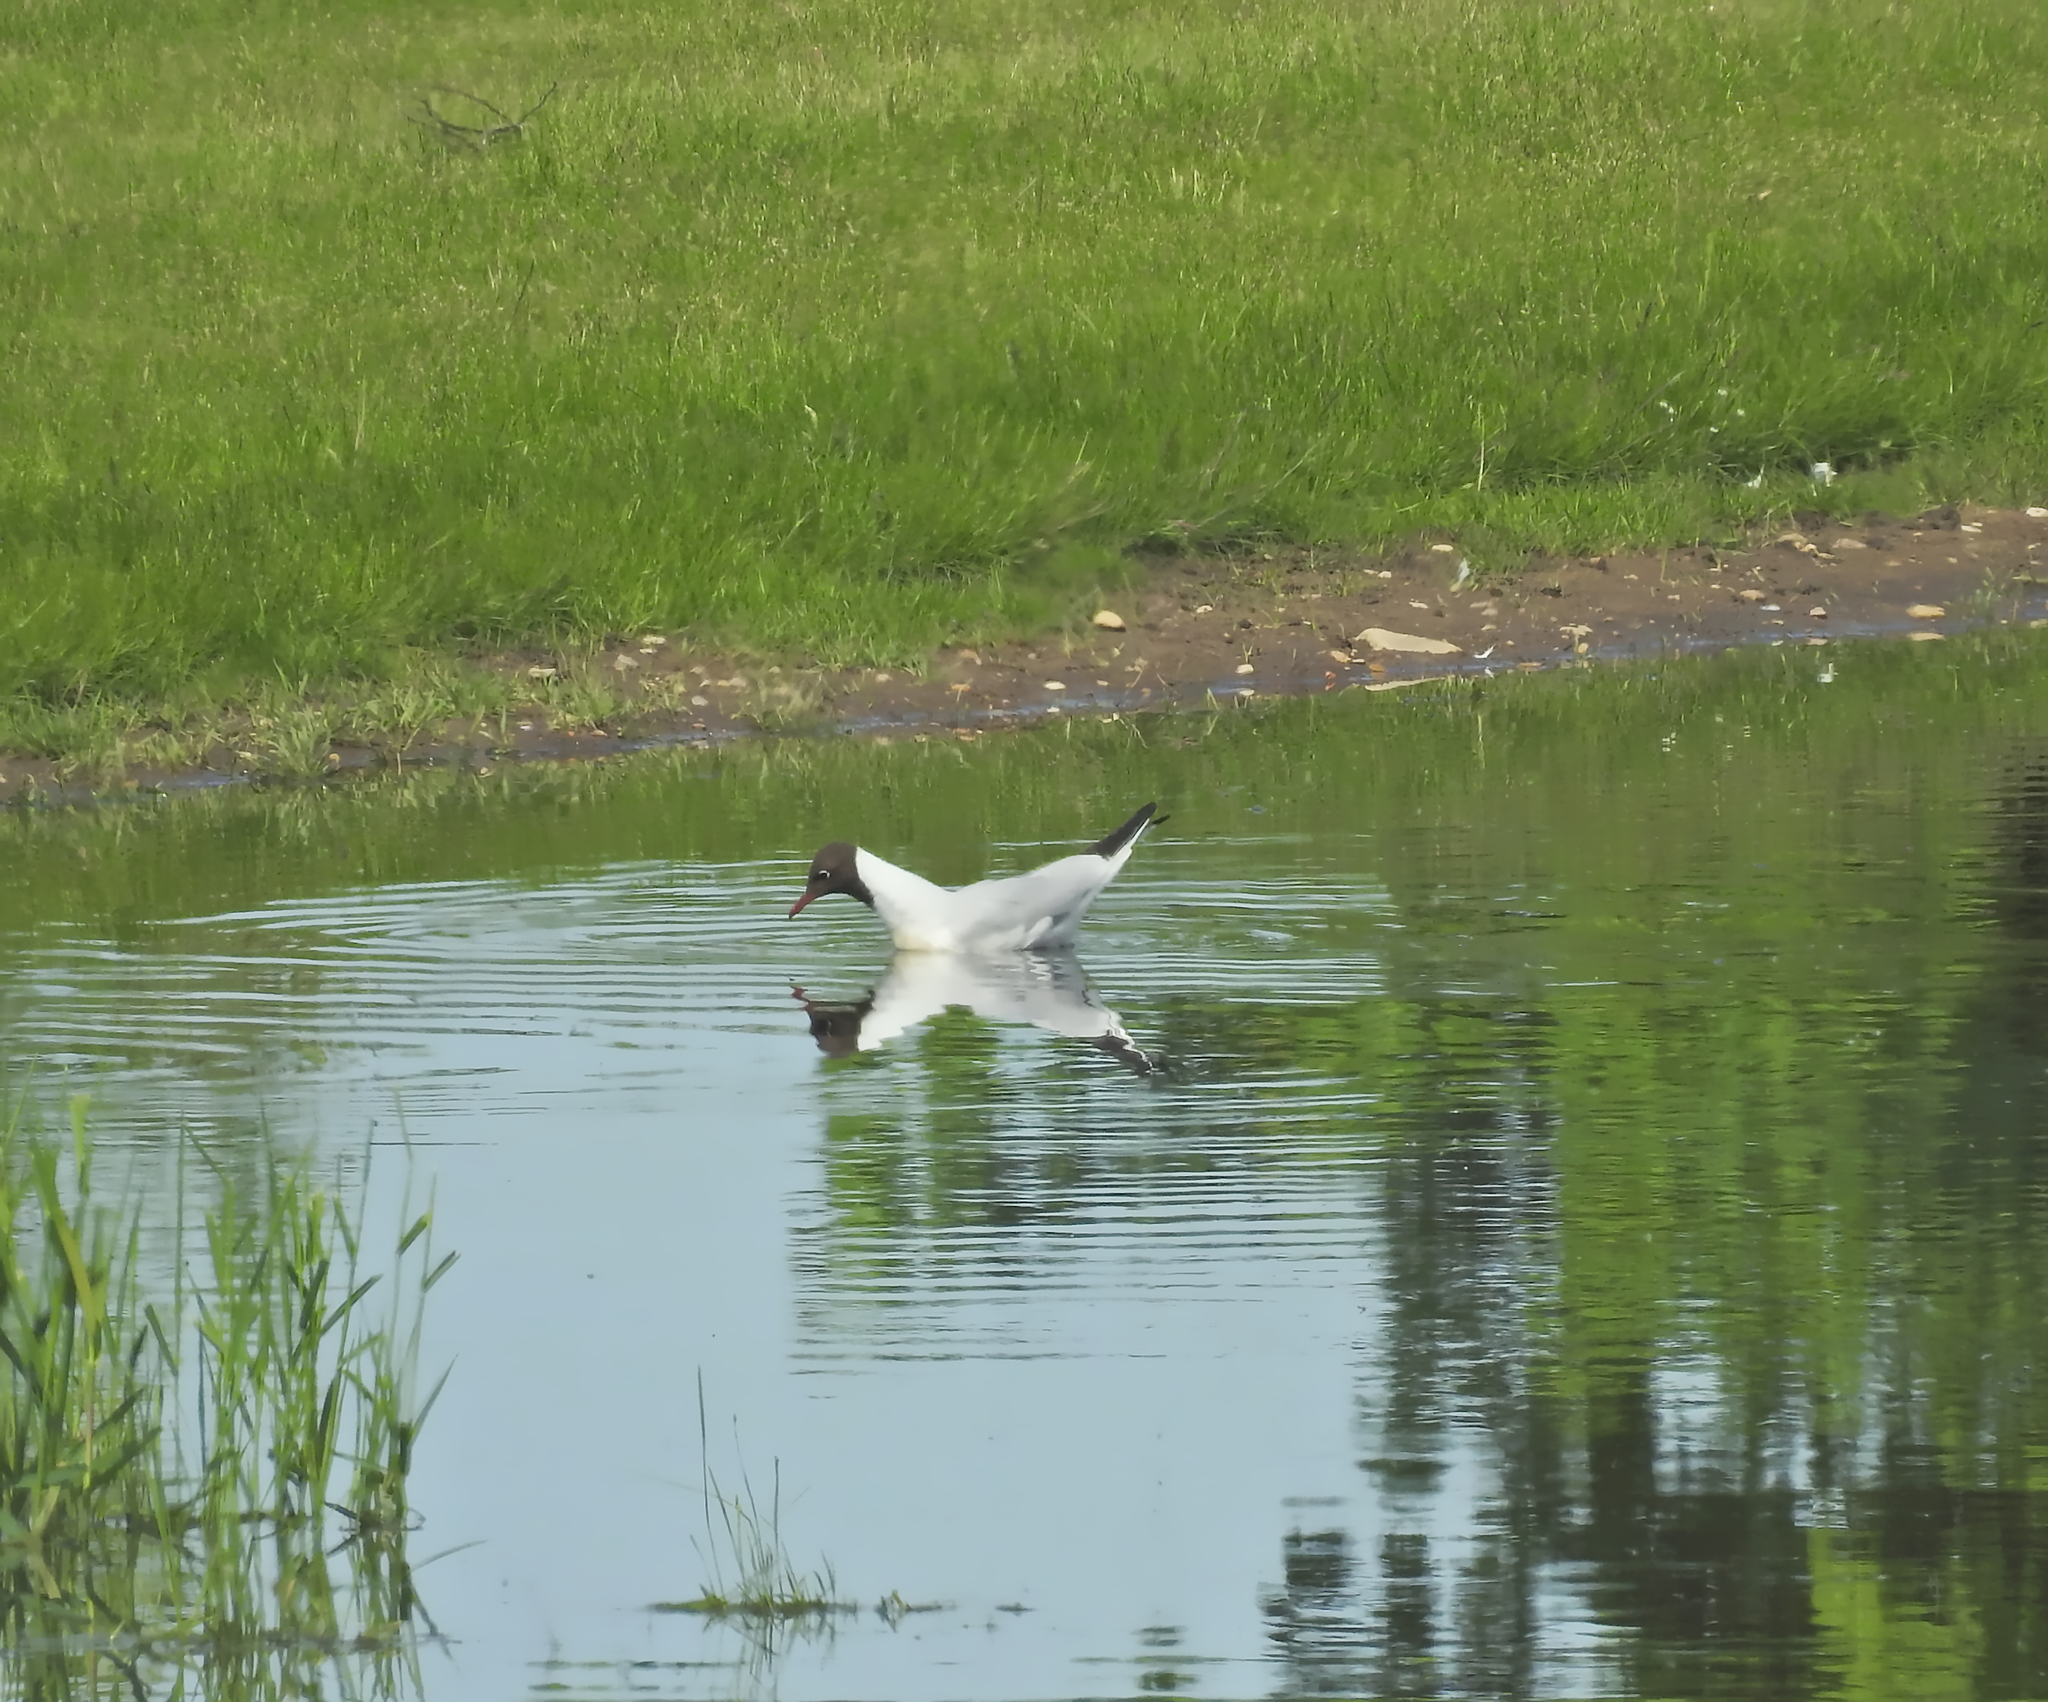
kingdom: Animalia
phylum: Chordata
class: Aves
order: Charadriiformes
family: Laridae
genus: Chroicocephalus
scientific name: Chroicocephalus ridibundus
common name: Black-headed gull
